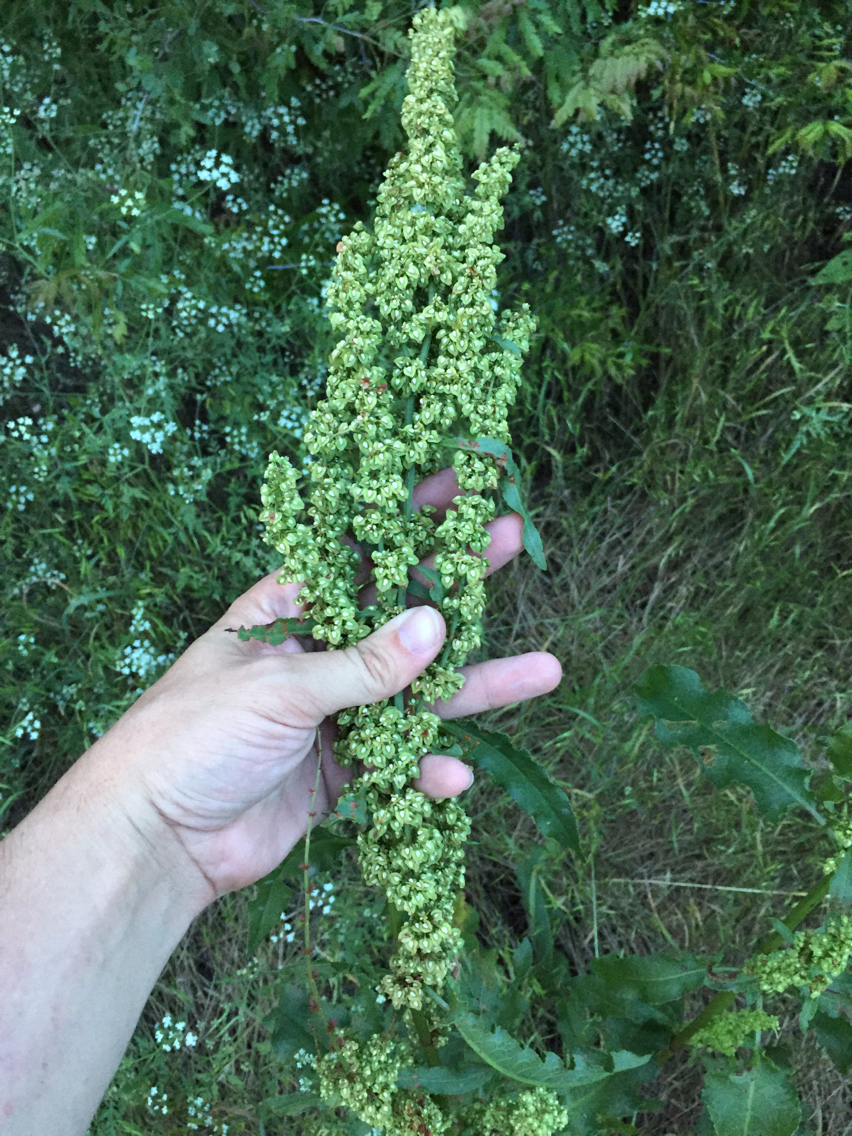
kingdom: Plantae
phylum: Tracheophyta
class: Magnoliopsida
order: Caryophyllales
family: Polygonaceae
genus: Rumex
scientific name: Rumex crispus
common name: Curled dock
